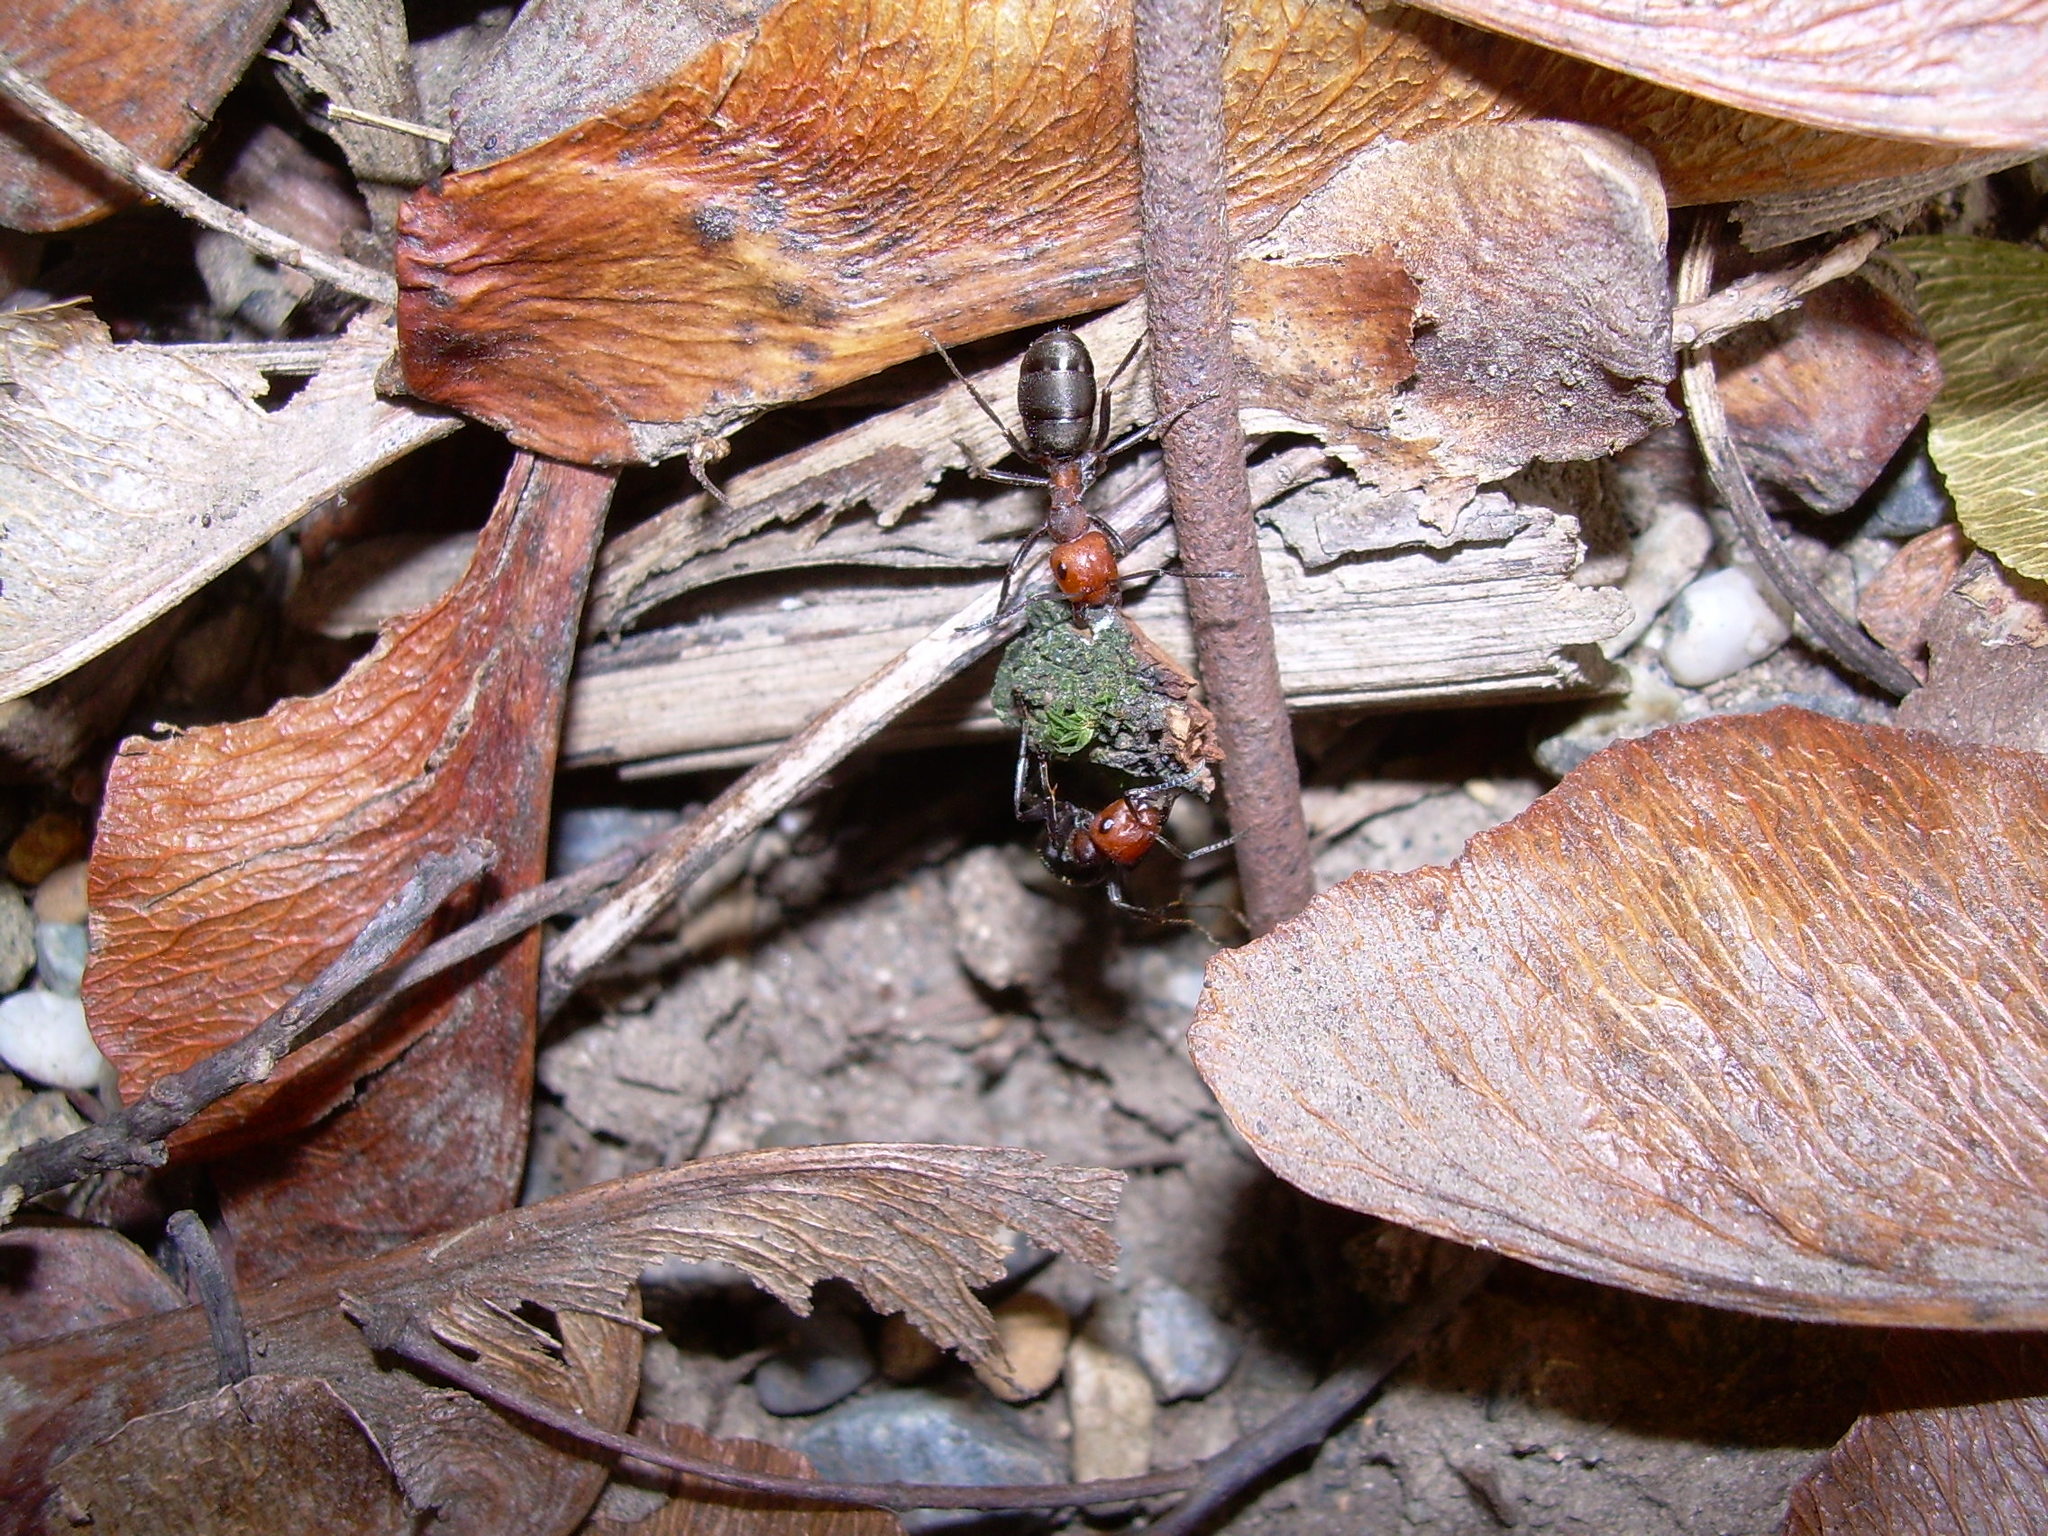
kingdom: Animalia
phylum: Arthropoda
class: Insecta
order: Hymenoptera
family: Formicidae
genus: Formica
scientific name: Formica obscuripes
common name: Western thatching ant
